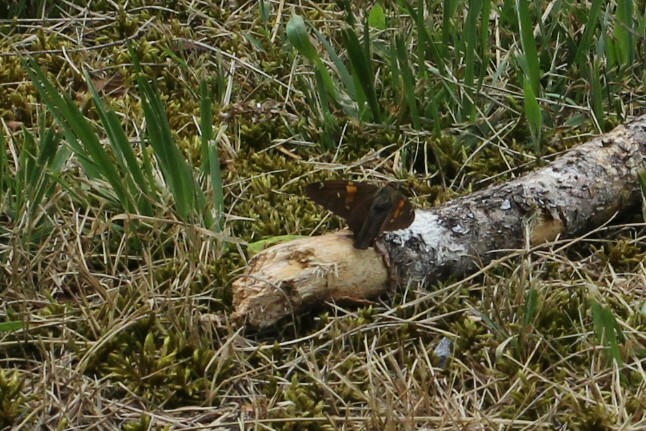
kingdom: Animalia
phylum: Arthropoda
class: Insecta
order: Lepidoptera
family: Hesperiidae
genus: Epargyreus
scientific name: Epargyreus clarus
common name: Silver-spotted skipper
